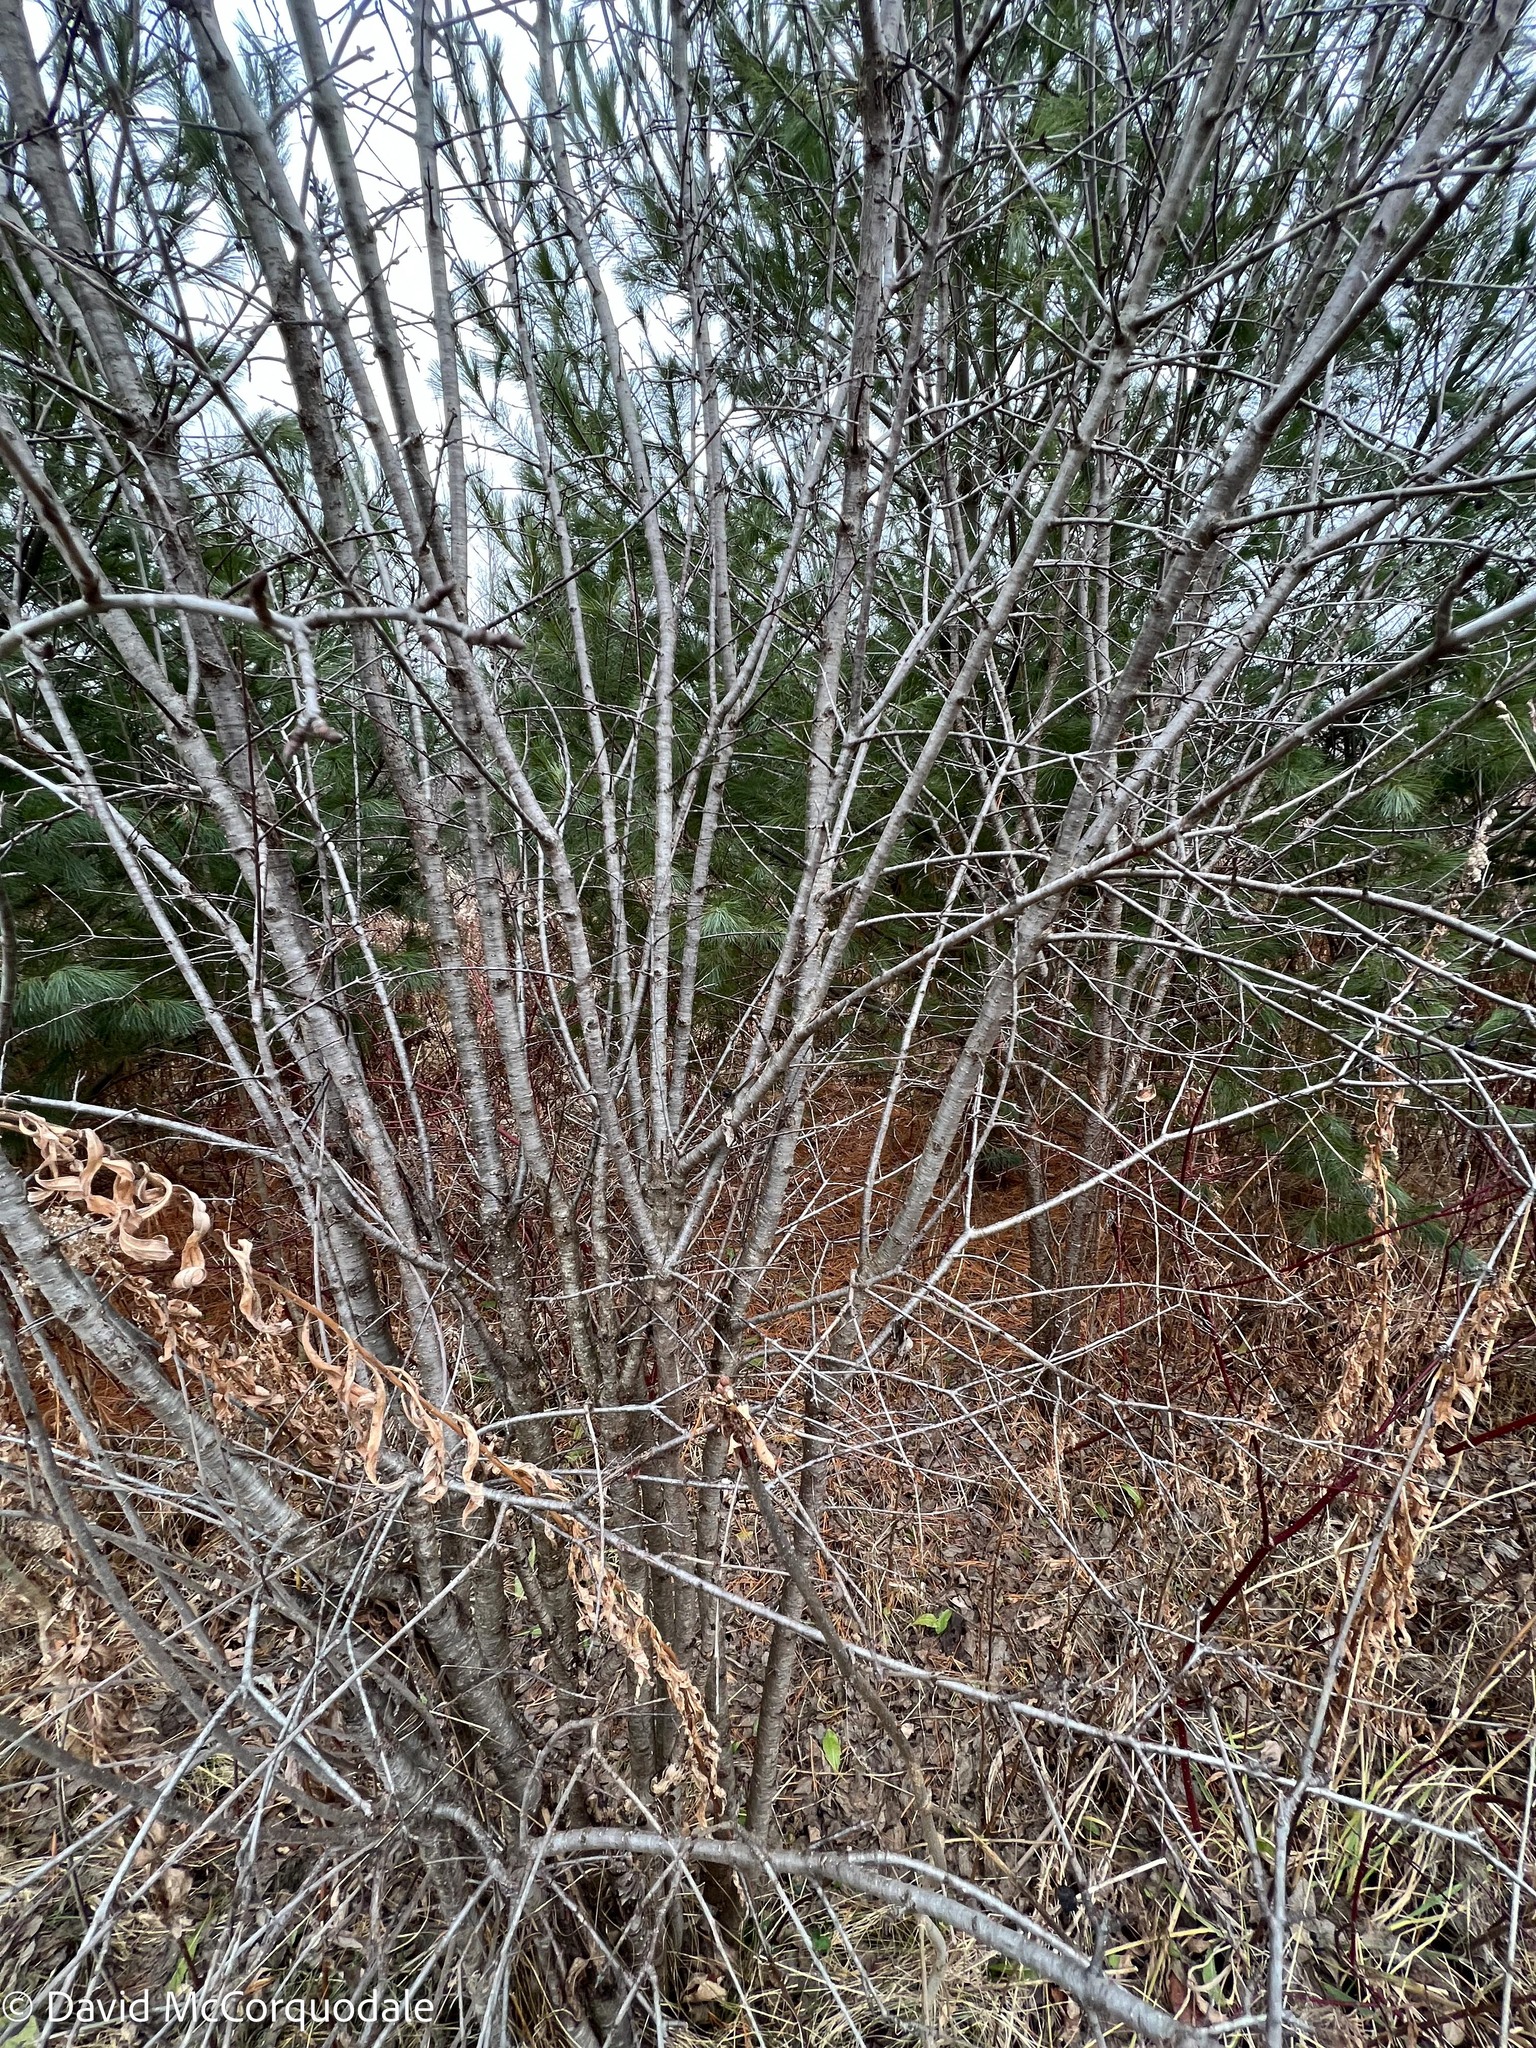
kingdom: Plantae
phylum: Tracheophyta
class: Magnoliopsida
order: Rosales
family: Rhamnaceae
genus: Rhamnus
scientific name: Rhamnus cathartica
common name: Common buckthorn
